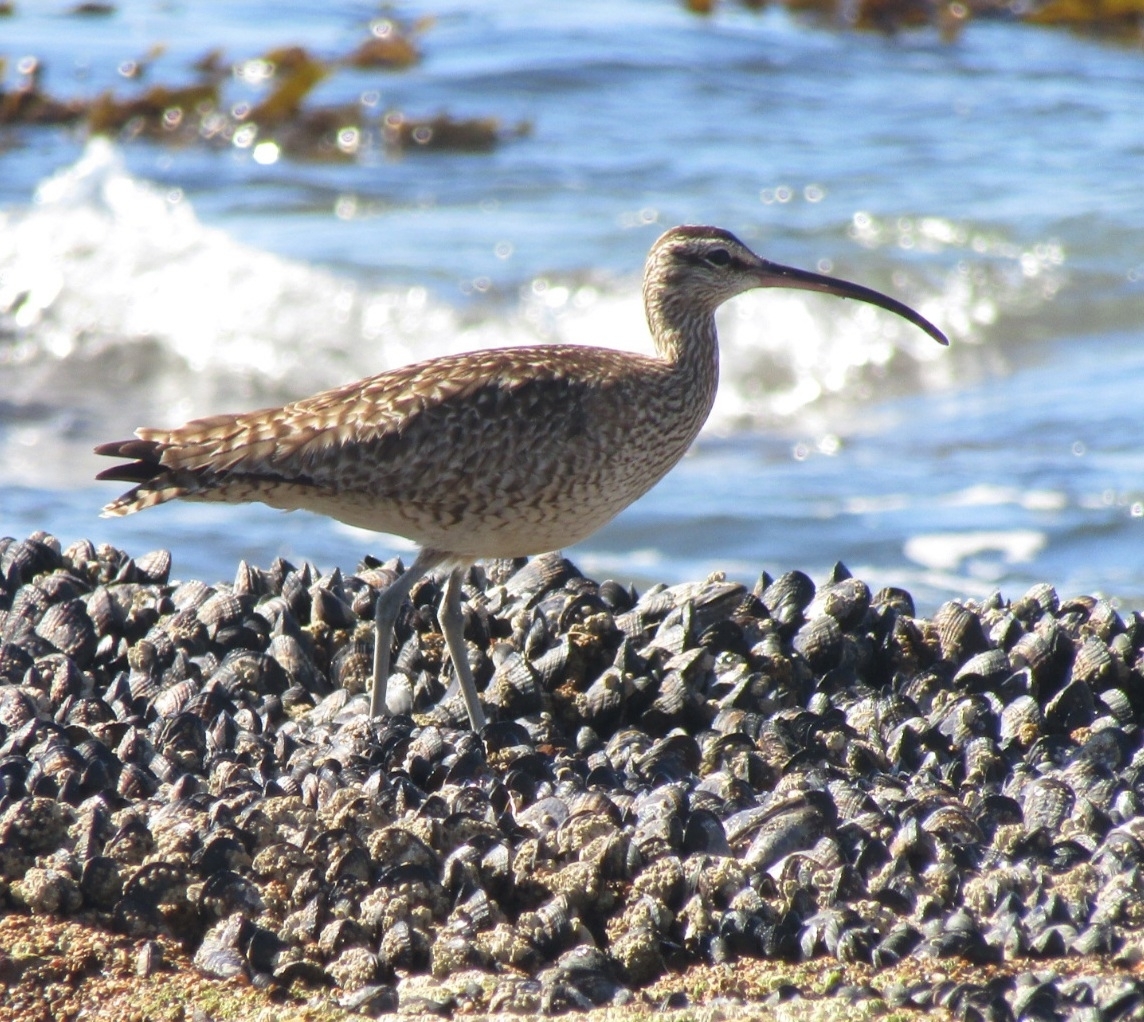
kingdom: Animalia
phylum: Chordata
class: Aves
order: Charadriiformes
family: Scolopacidae
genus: Numenius
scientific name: Numenius phaeopus
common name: Whimbrel
